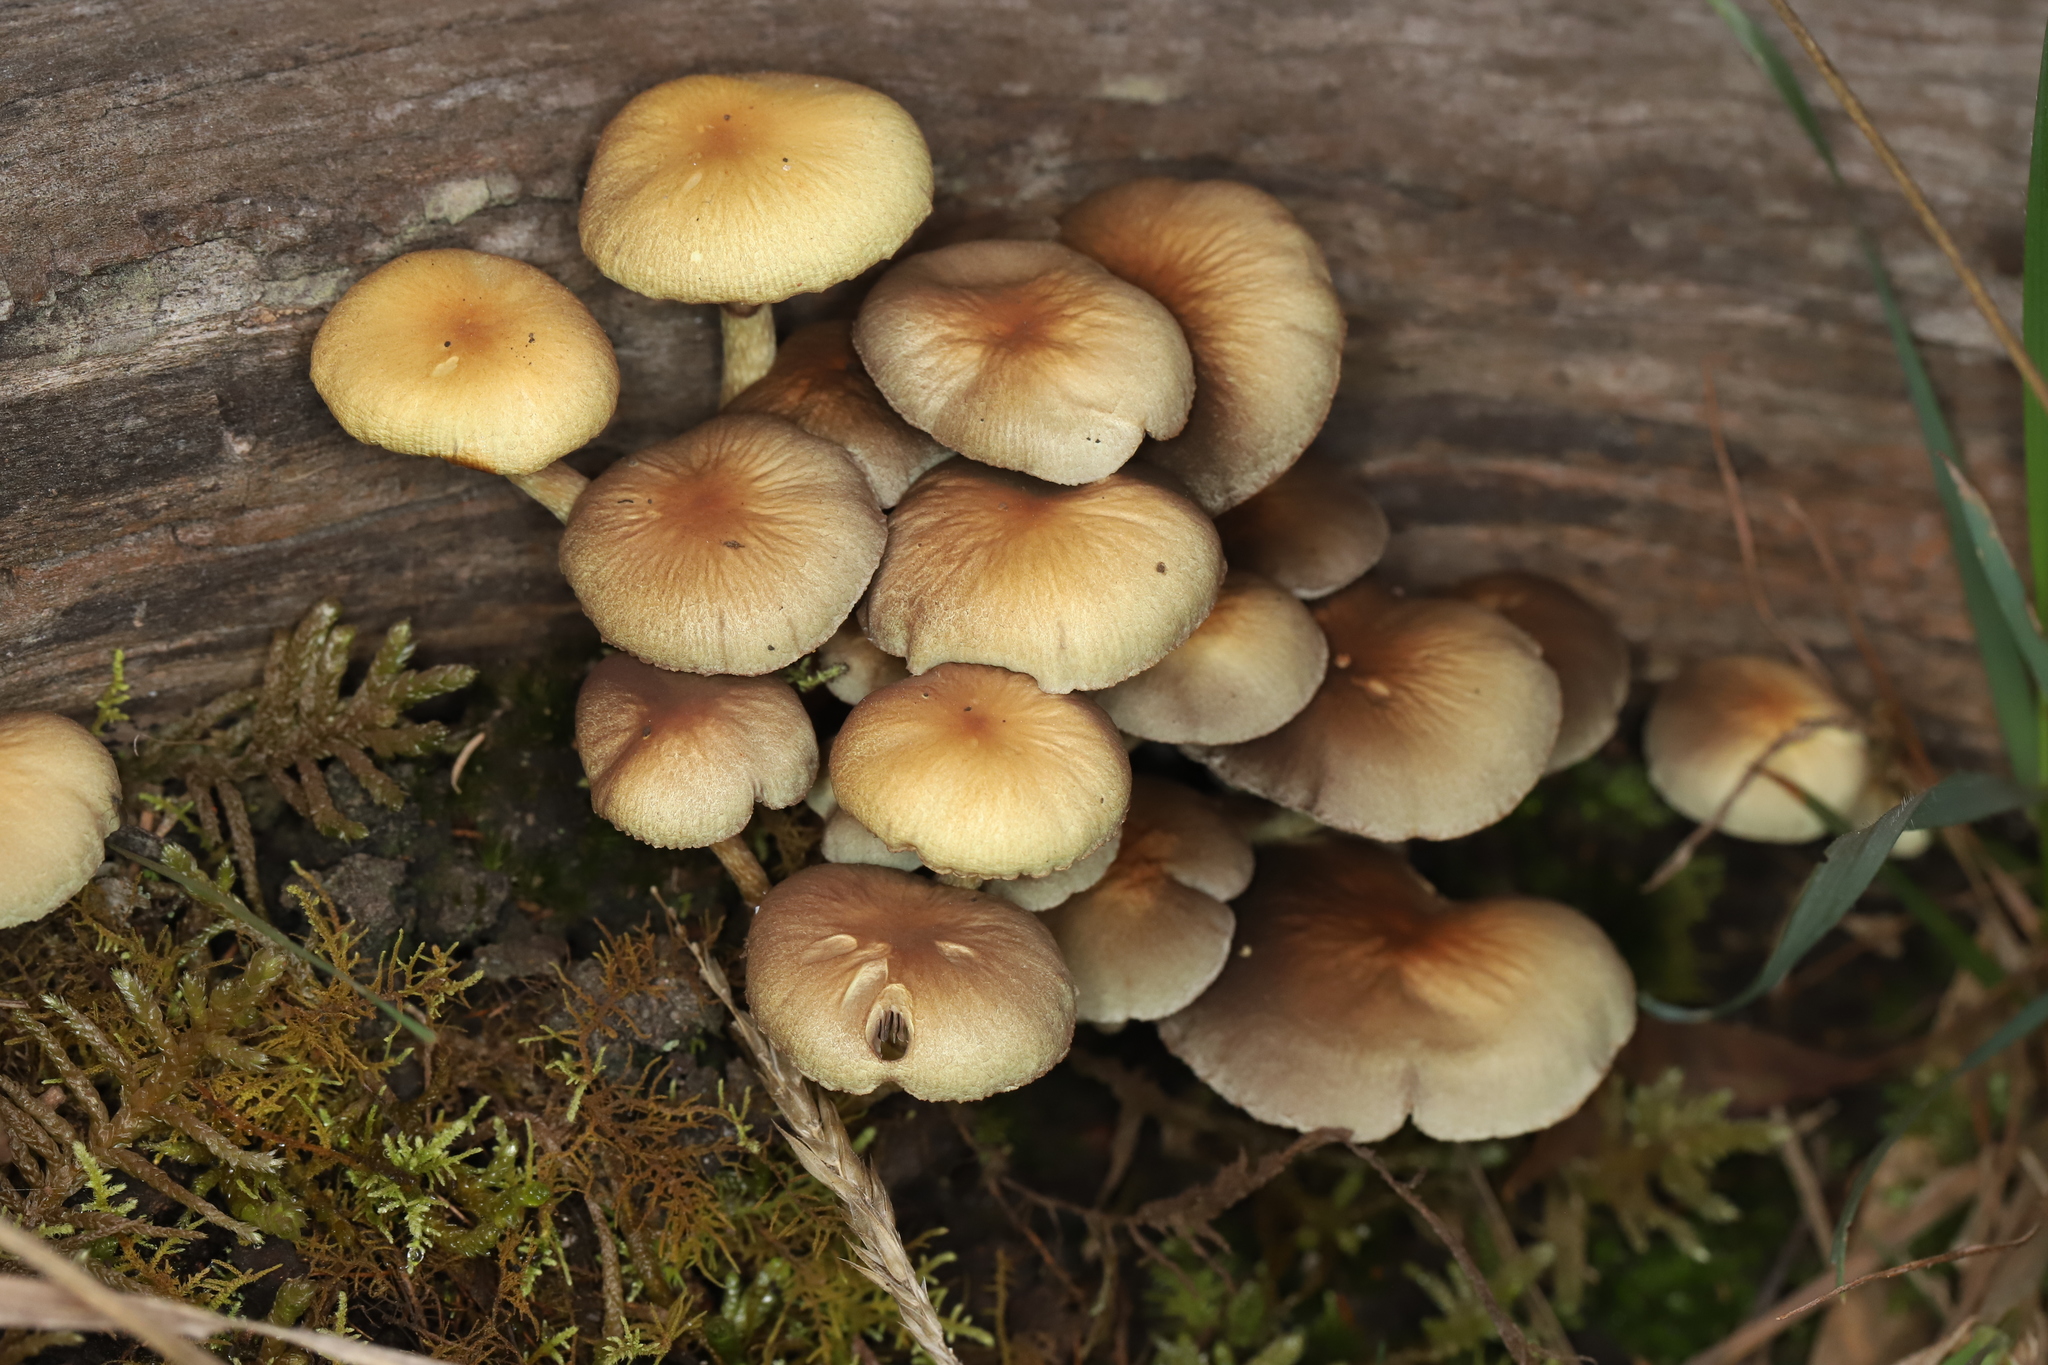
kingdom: Fungi
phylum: Basidiomycota
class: Agaricomycetes
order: Agaricales
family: Strophariaceae
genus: Hypholoma
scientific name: Hypholoma fasciculare
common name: Sulphur tuft
